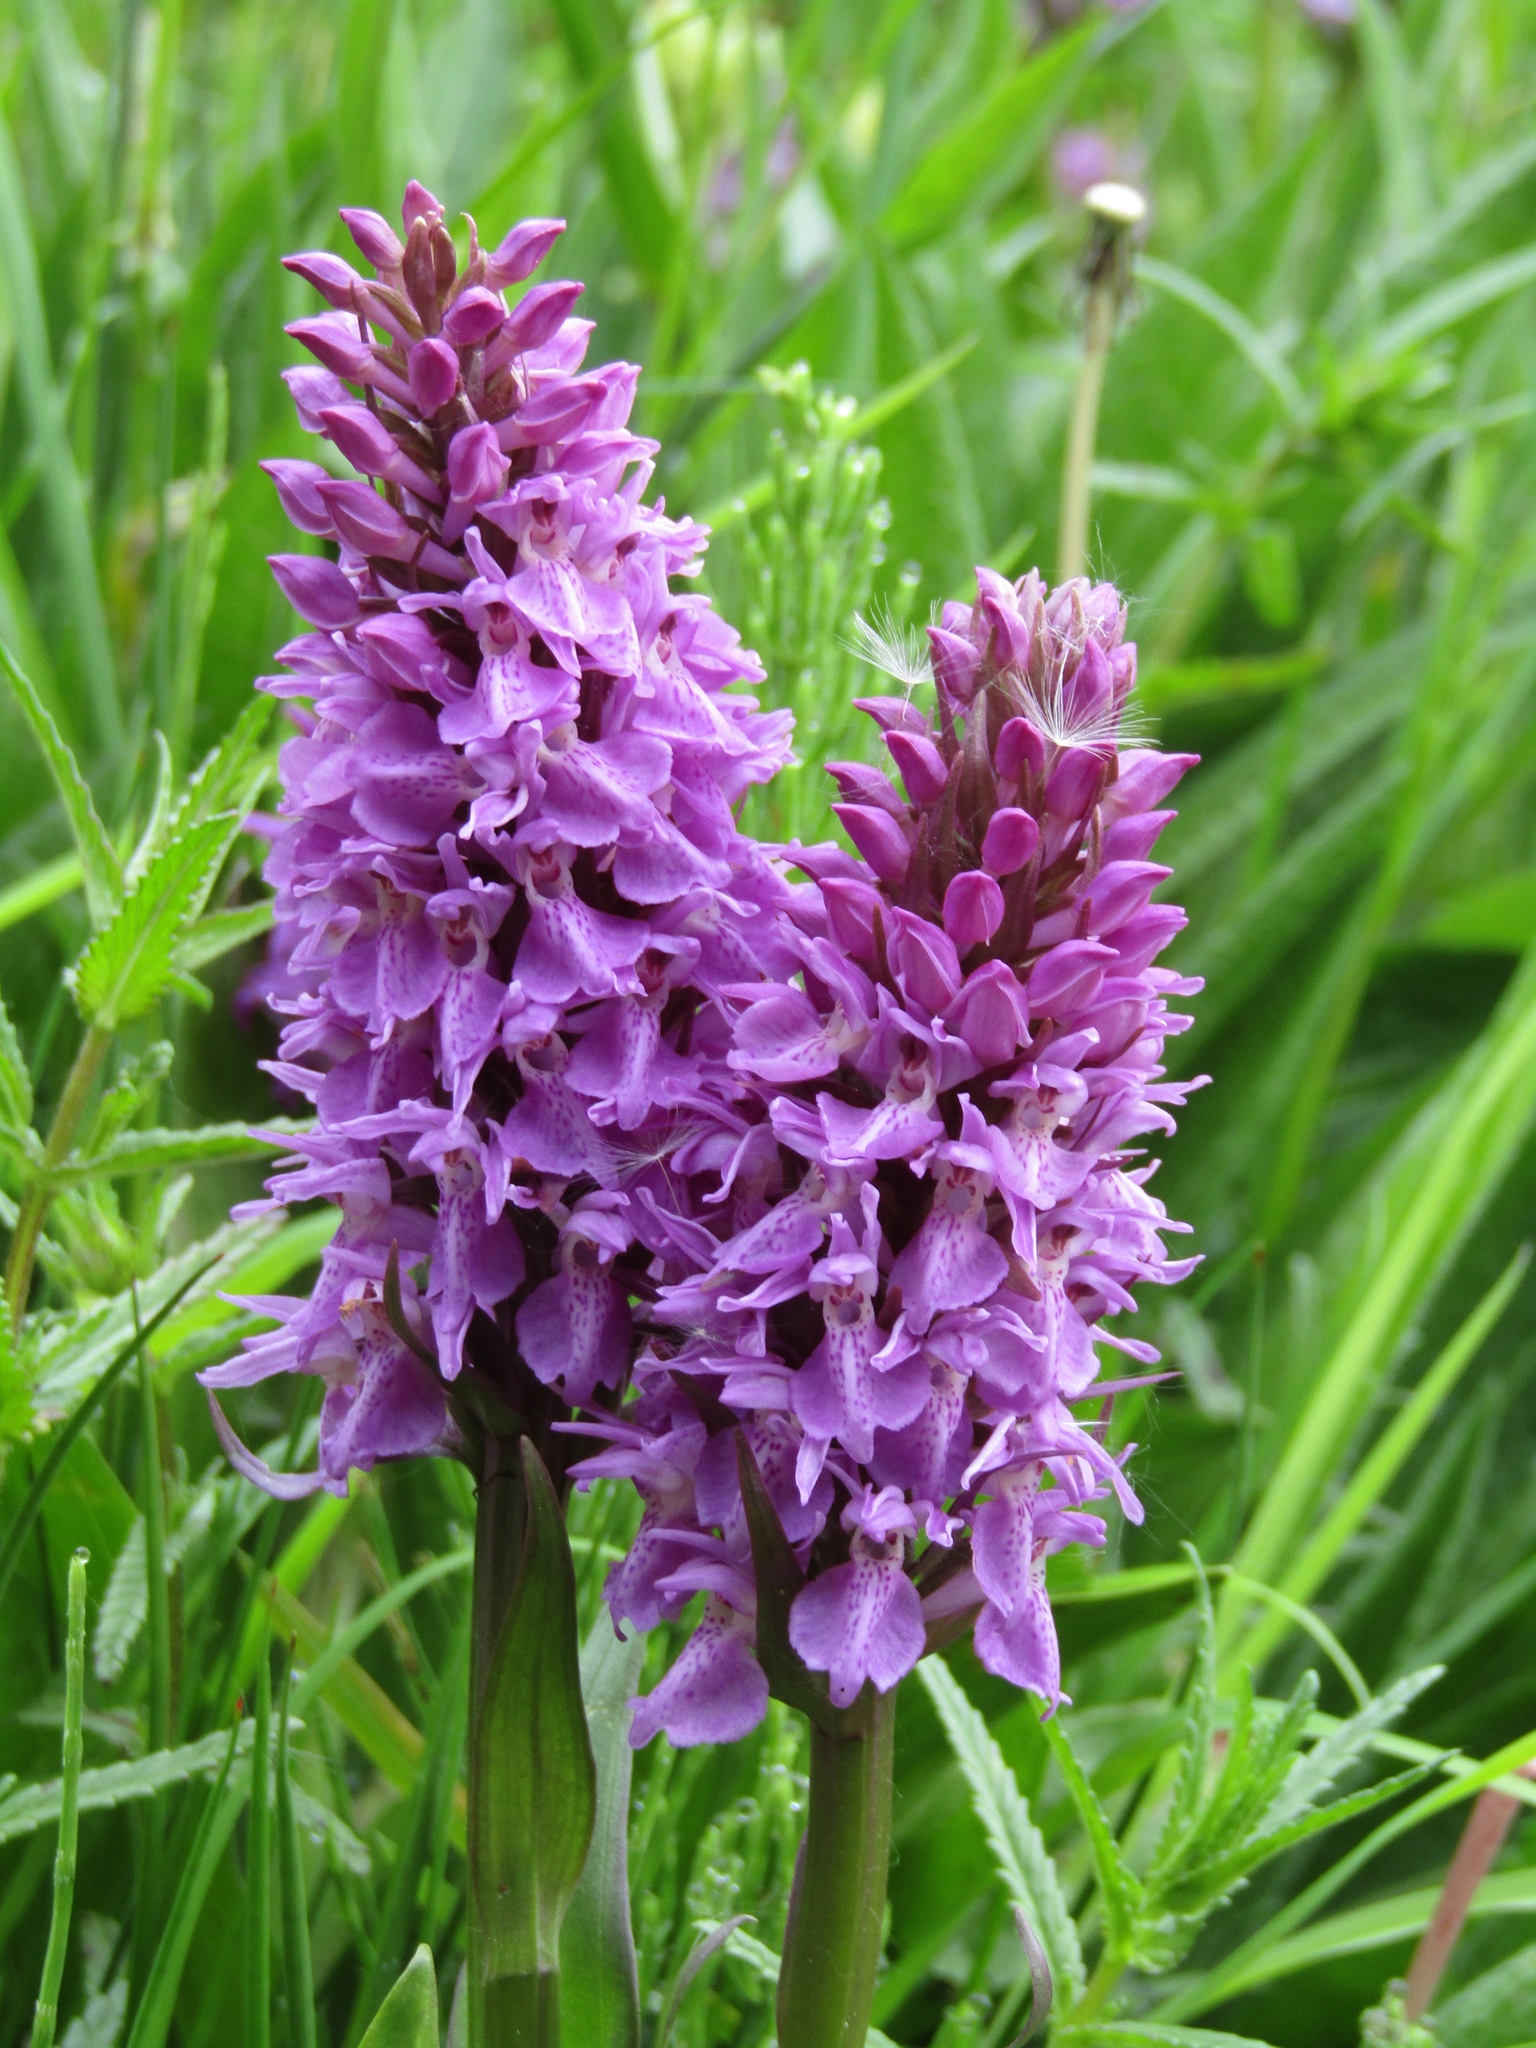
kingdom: Plantae
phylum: Tracheophyta
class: Liliopsida
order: Asparagales
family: Orchidaceae
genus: Dactylorhiza
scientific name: Dactylorhiza majalis
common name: Marsh orchid
